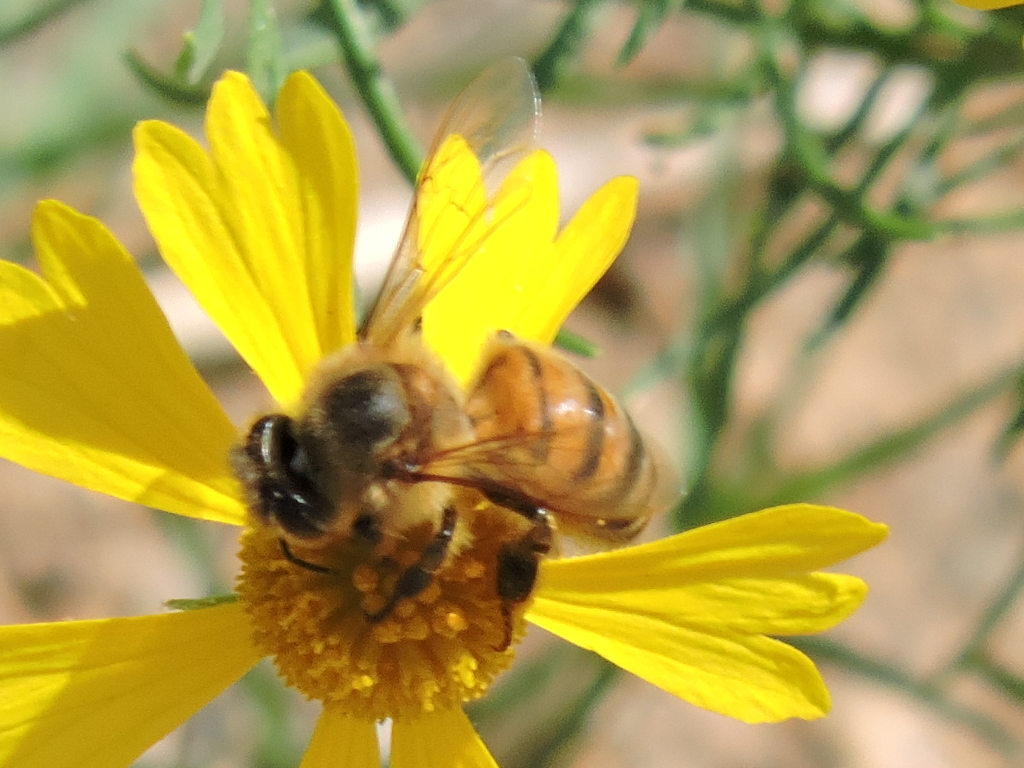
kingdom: Animalia
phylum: Arthropoda
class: Insecta
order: Hymenoptera
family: Apidae
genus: Apis
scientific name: Apis mellifera
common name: Honey bee
